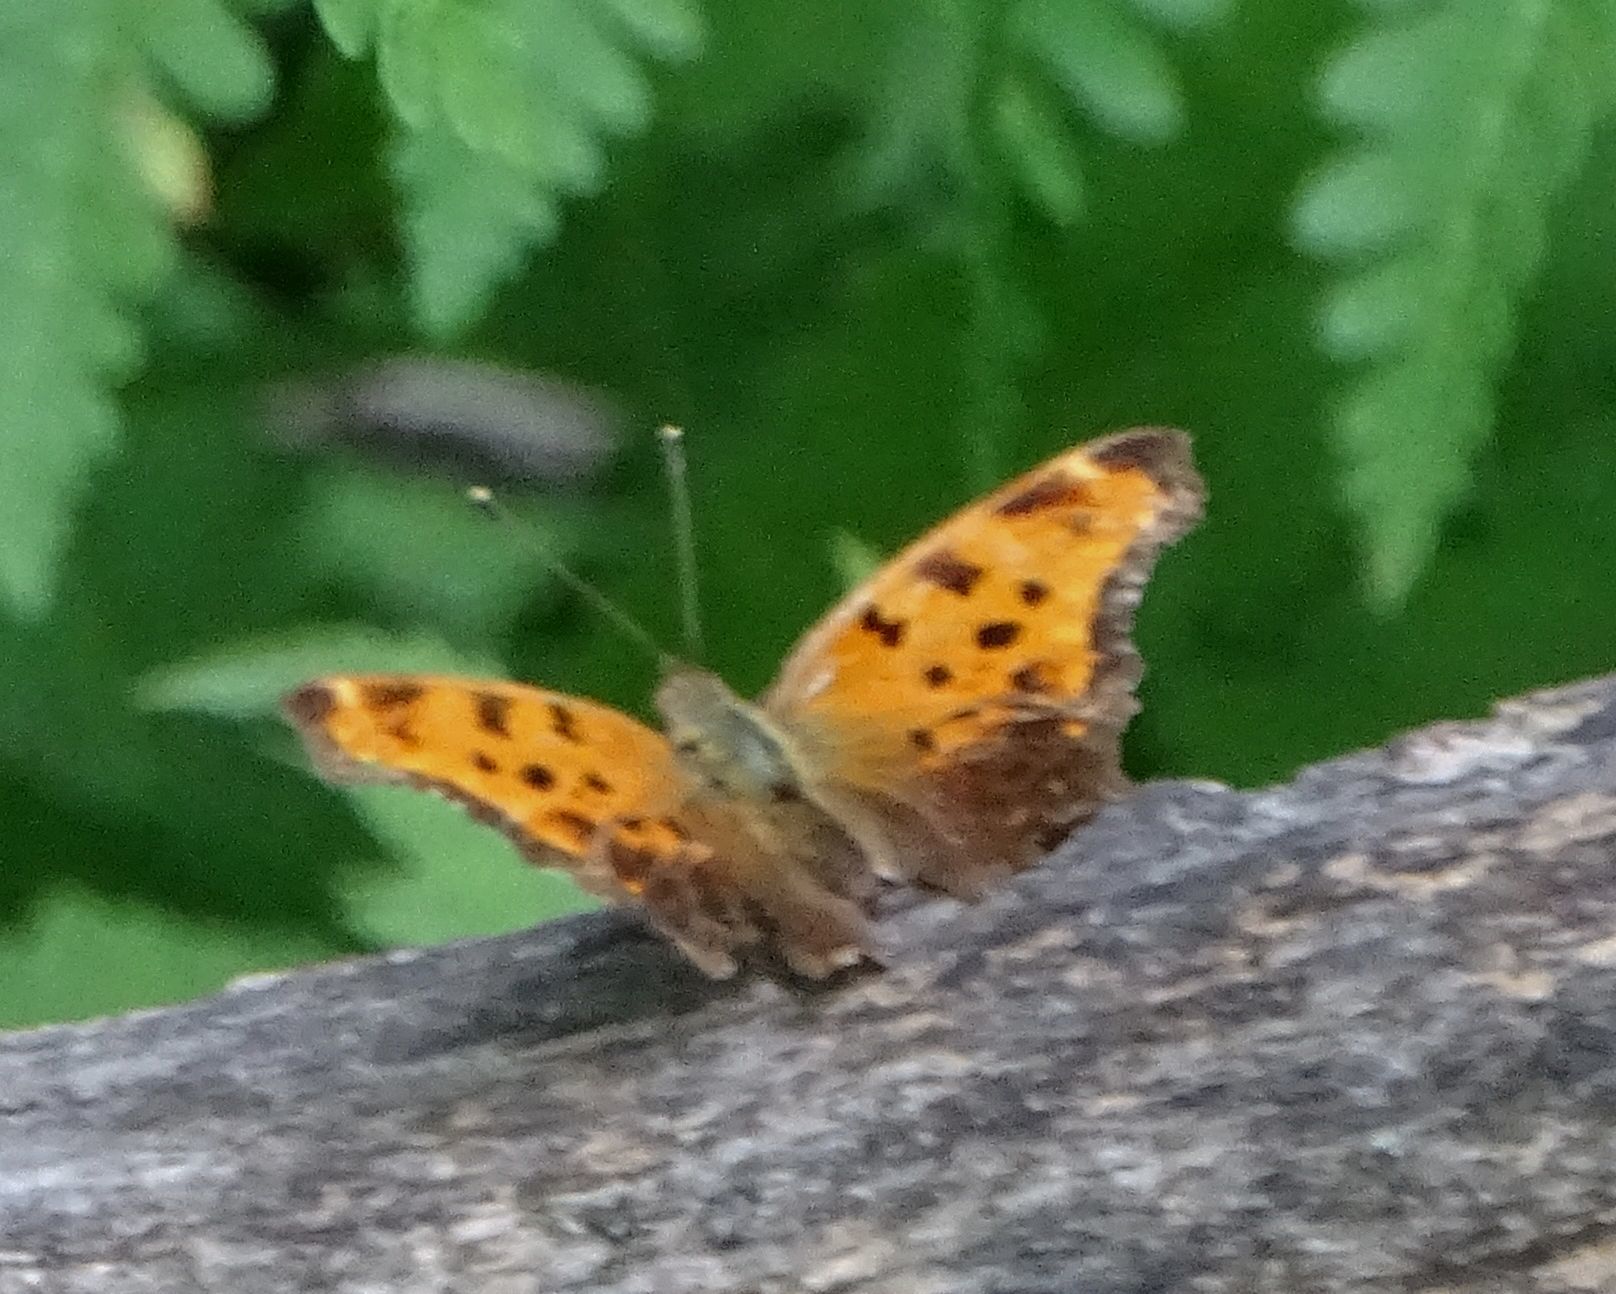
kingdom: Animalia
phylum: Arthropoda
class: Insecta
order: Lepidoptera
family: Nymphalidae
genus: Polygonia
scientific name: Polygonia comma
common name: Eastern comma
